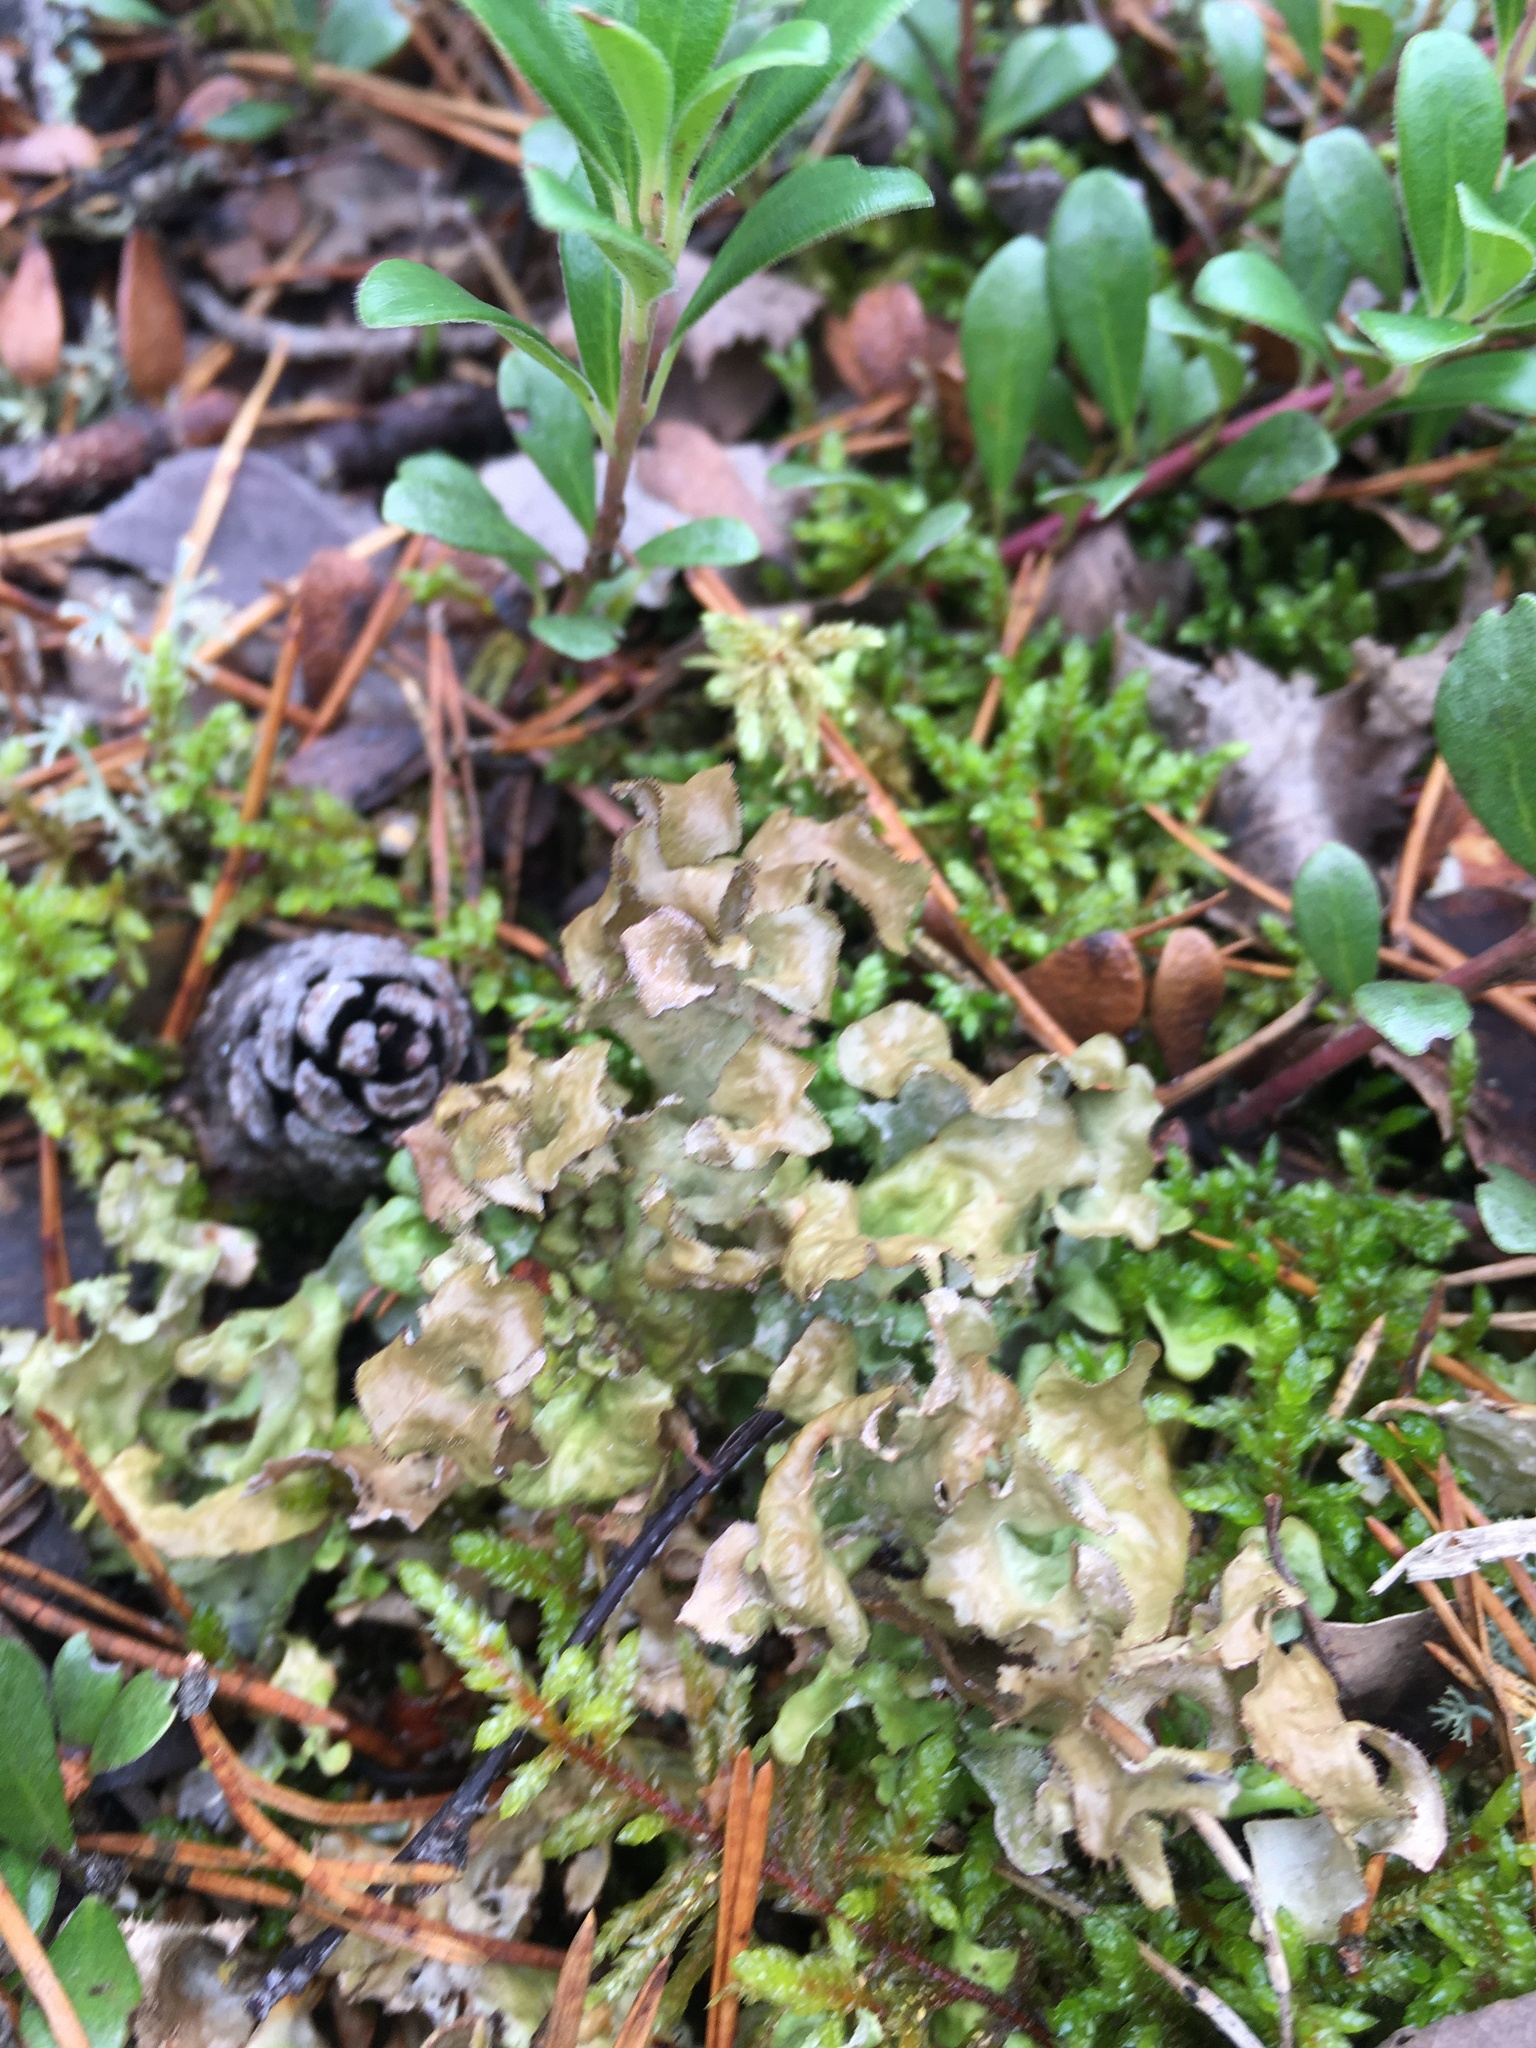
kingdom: Fungi
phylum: Ascomycota
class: Lecanoromycetes
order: Lecanorales
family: Parmeliaceae
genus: Cetraria
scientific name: Cetraria islandica
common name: Iceland lichen
